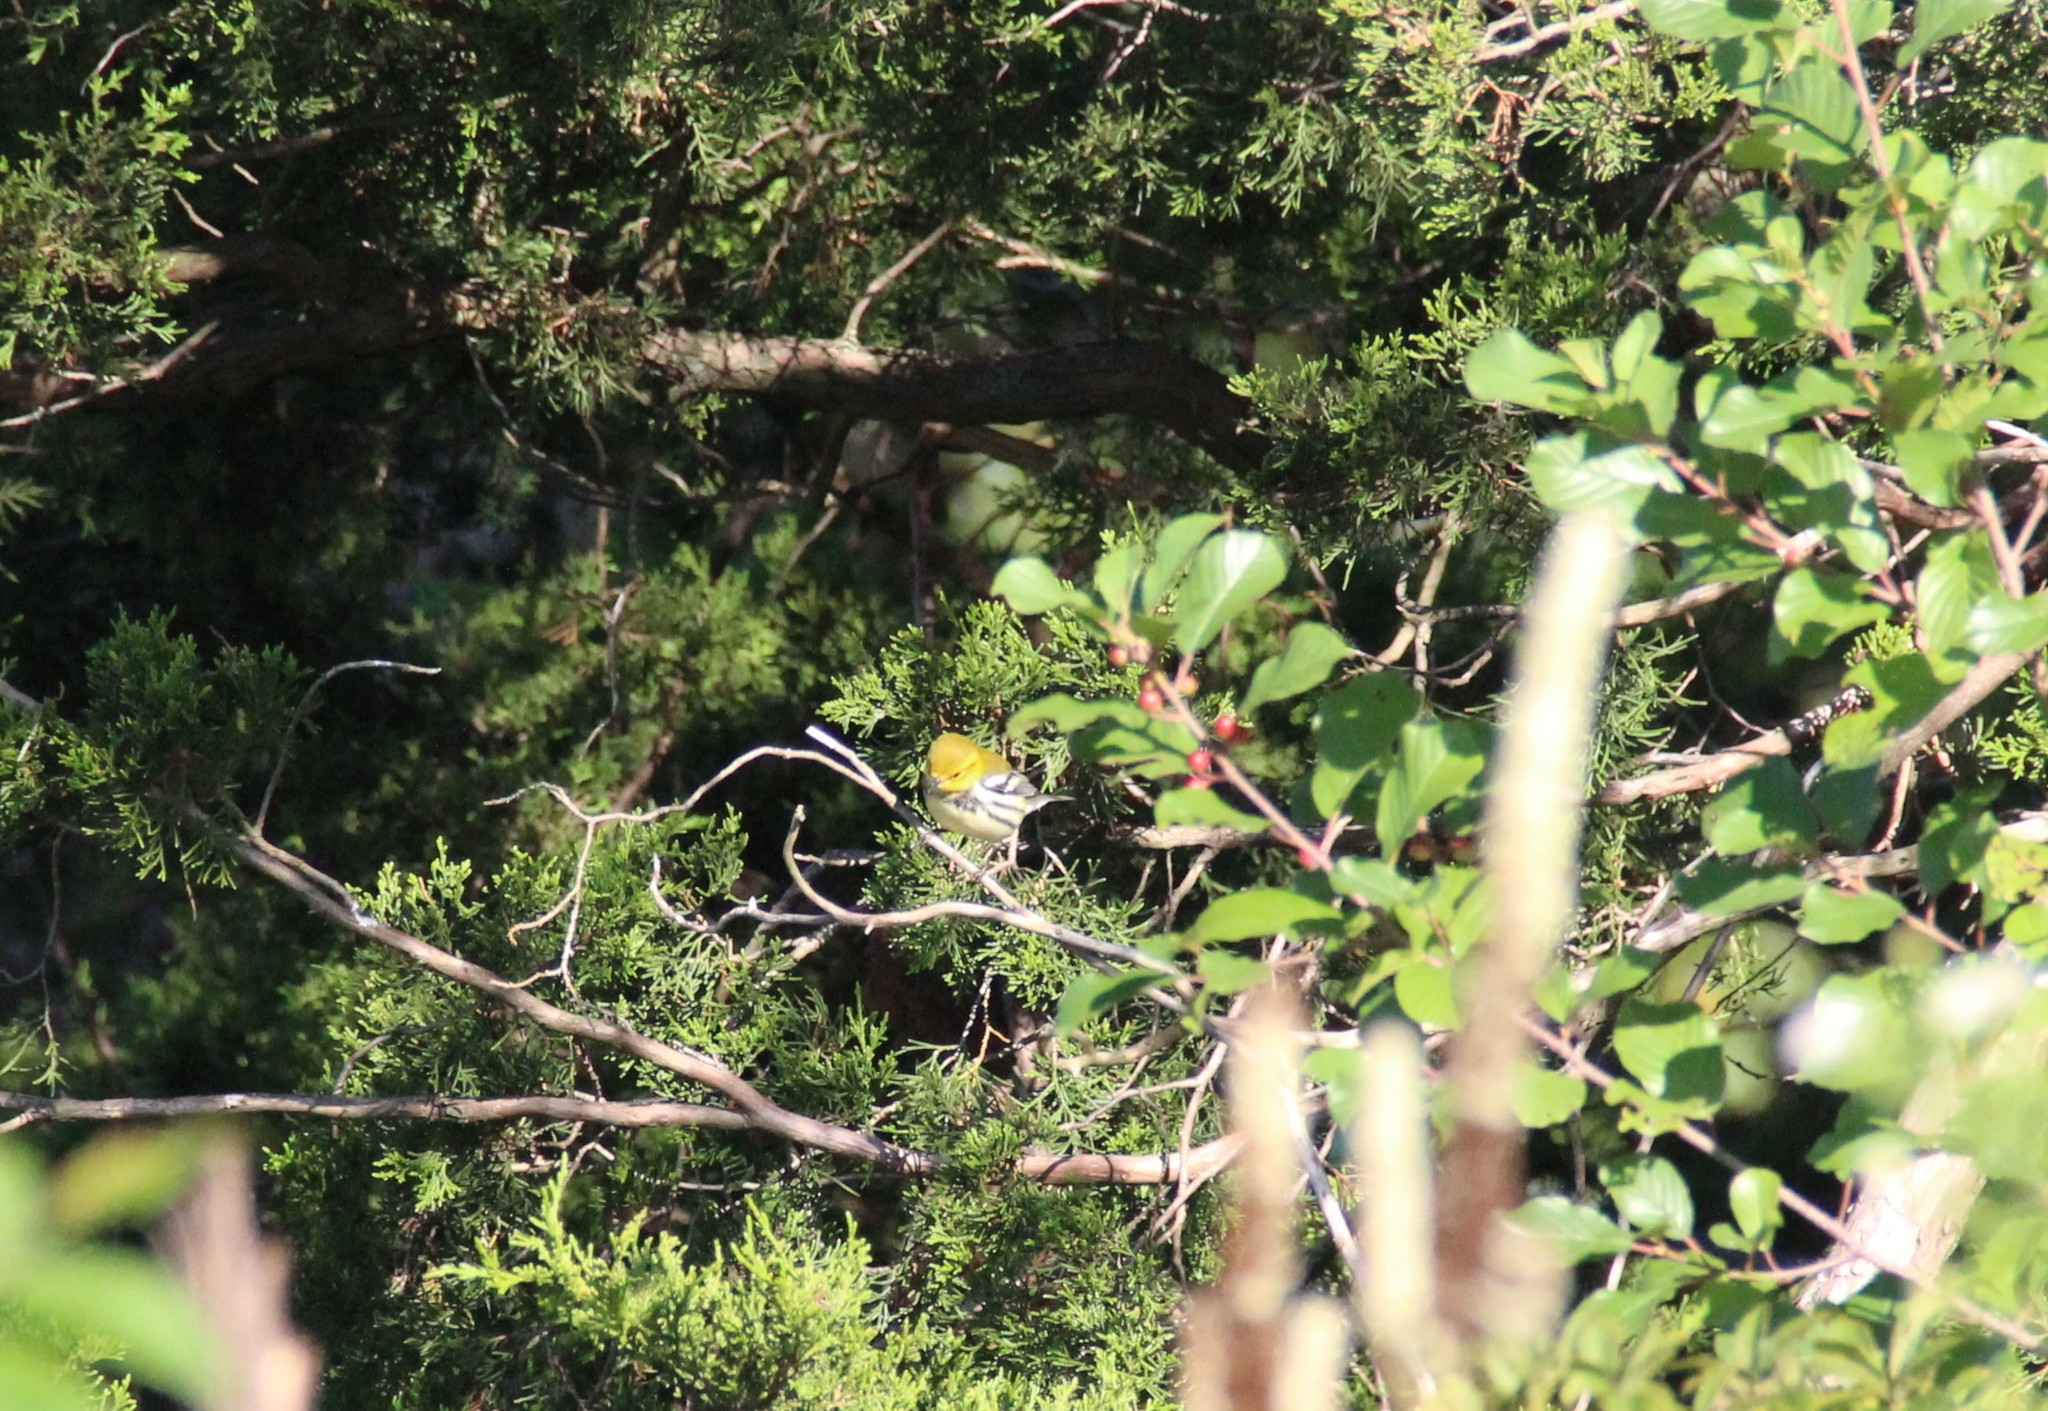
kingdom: Animalia
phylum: Chordata
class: Aves
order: Passeriformes
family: Parulidae
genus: Setophaga
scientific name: Setophaga virens
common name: Black-throated green warbler
